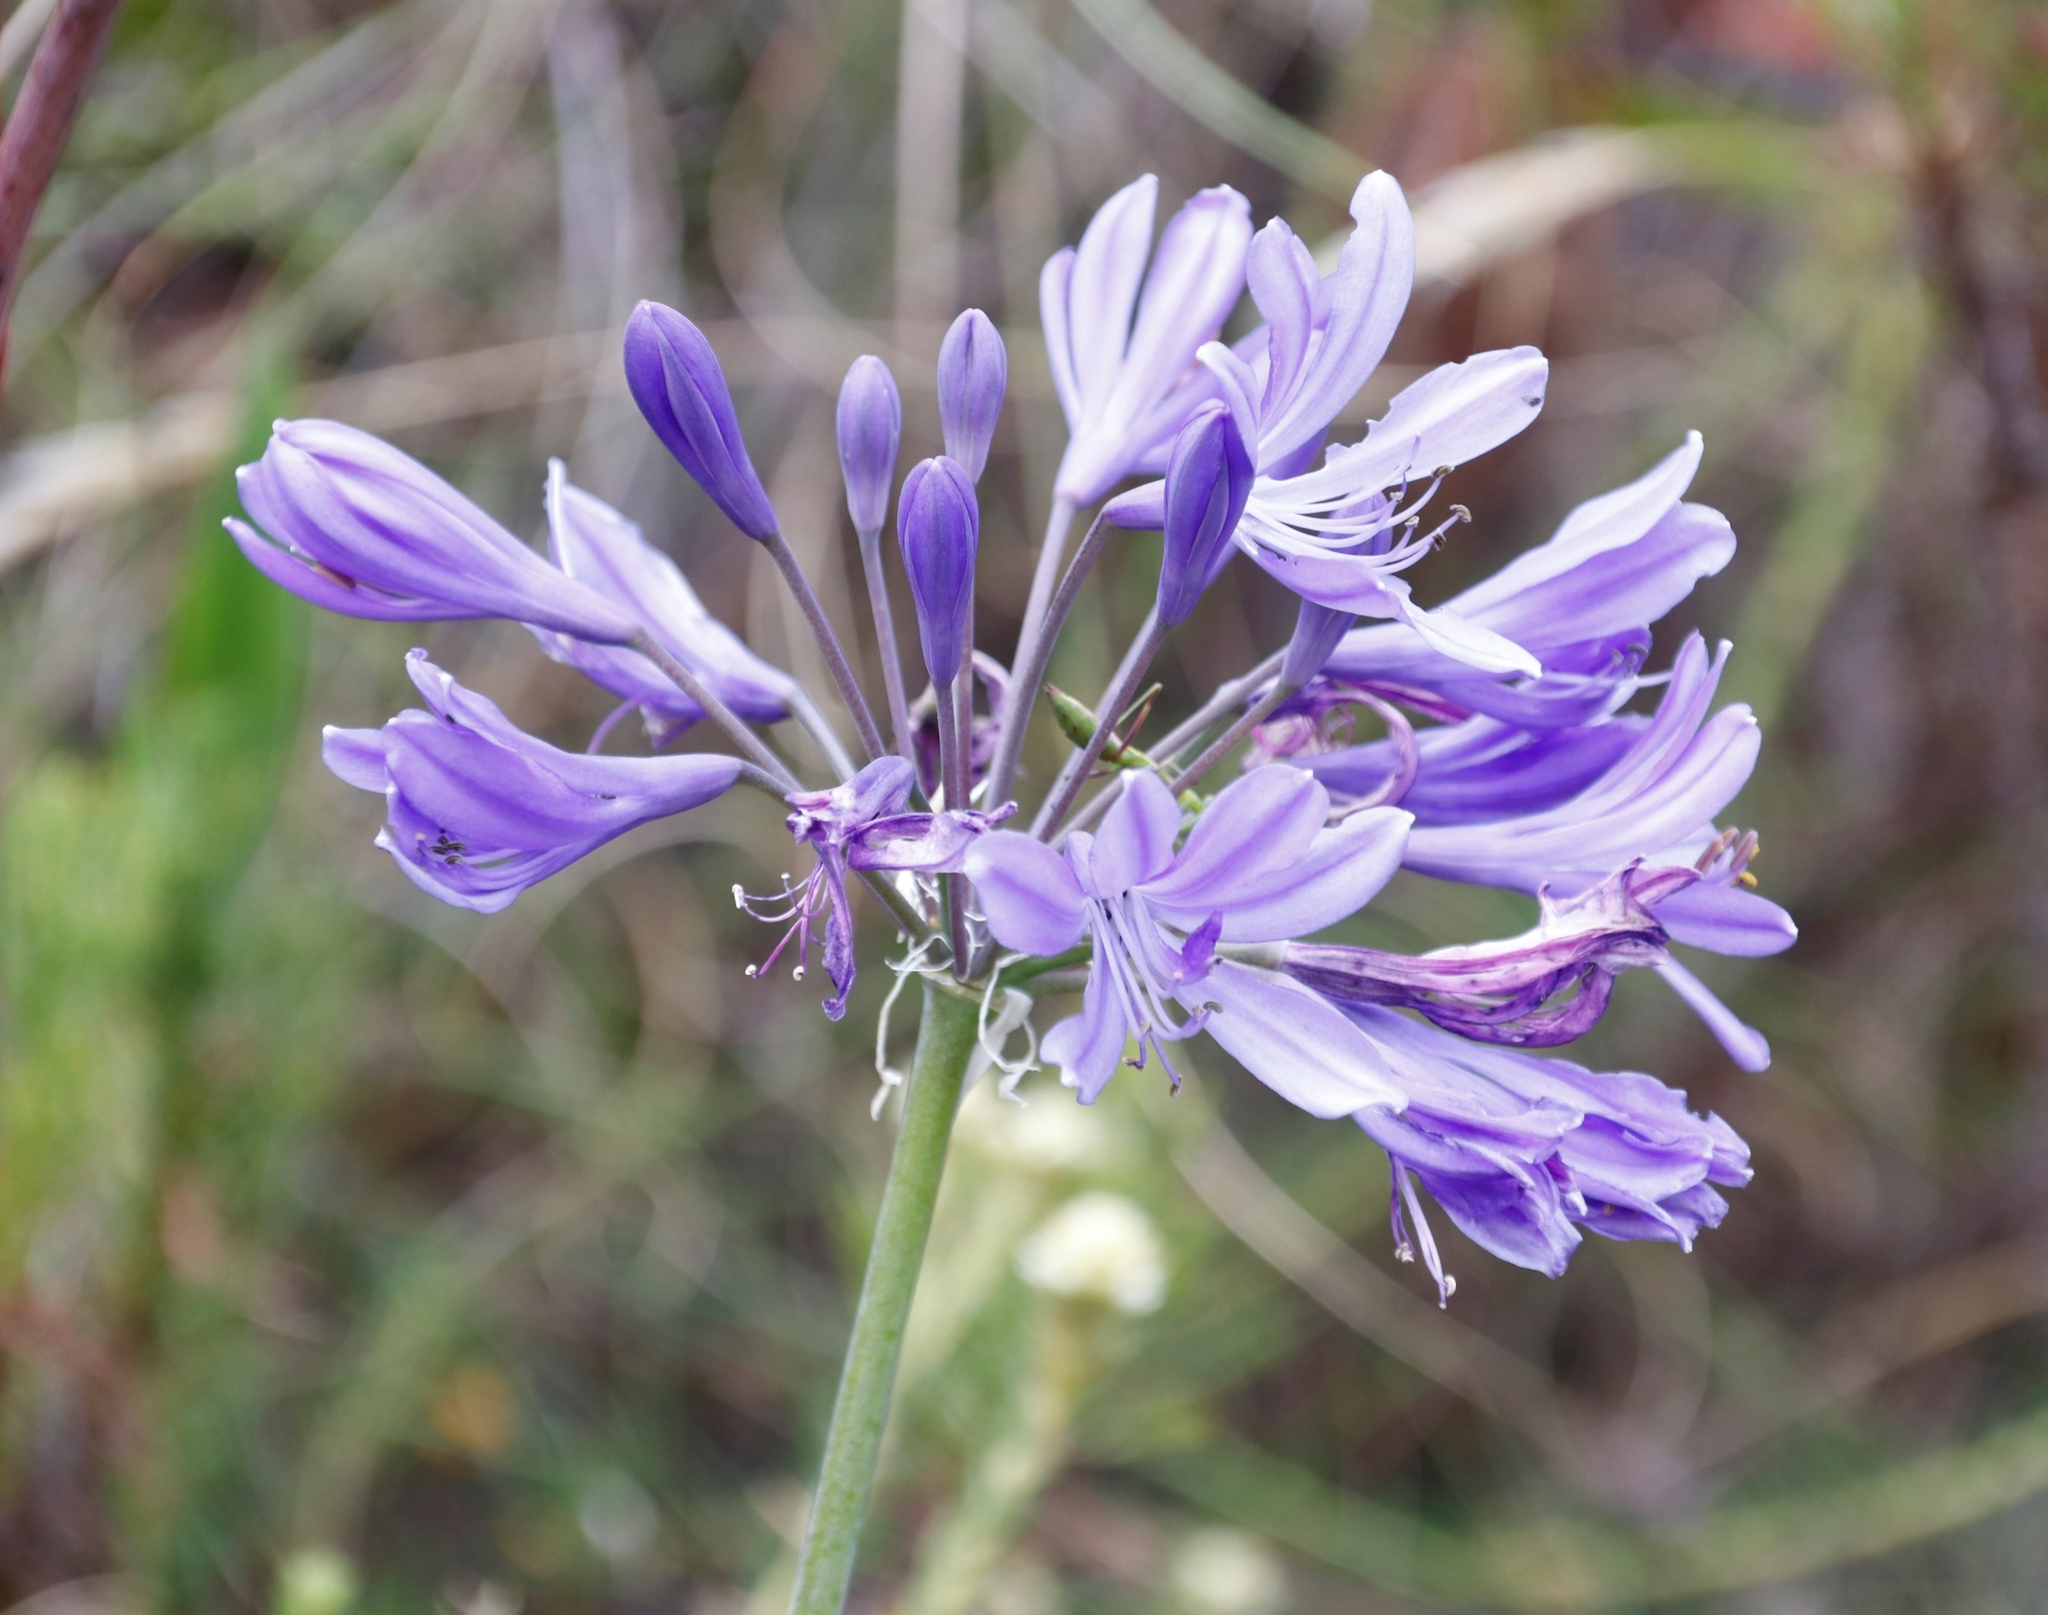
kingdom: Plantae
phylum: Tracheophyta
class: Liliopsida
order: Asparagales
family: Amaryllidaceae
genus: Agapanthus
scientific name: Agapanthus
